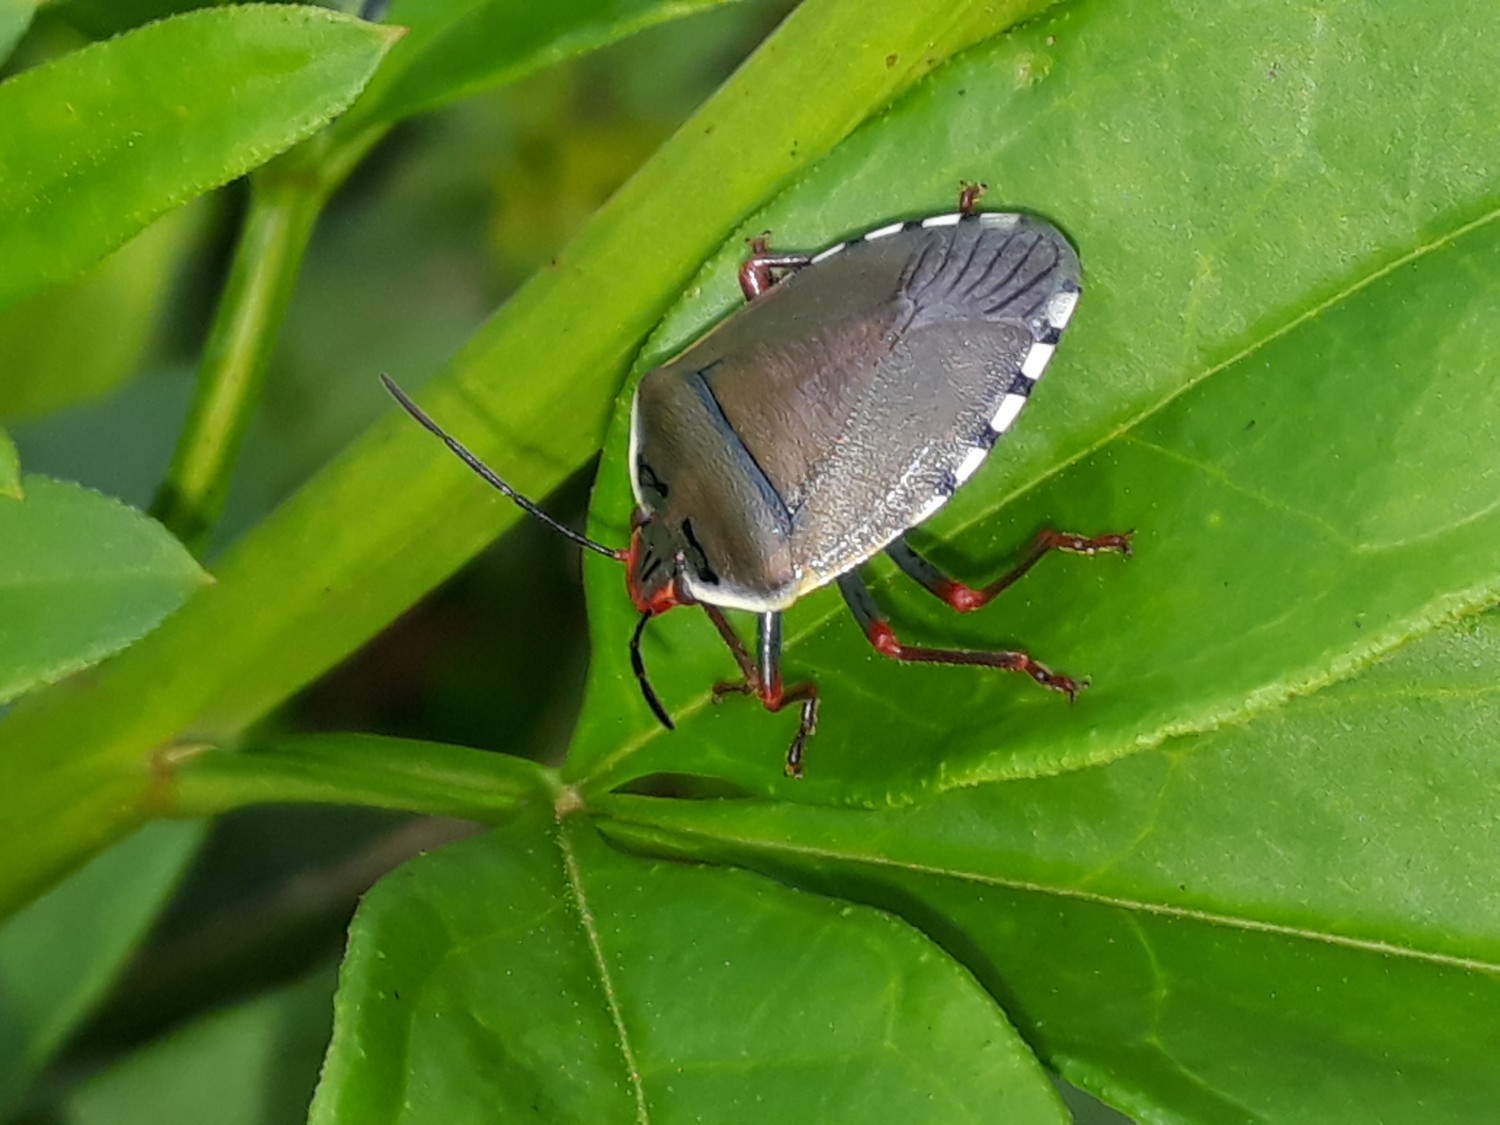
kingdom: Animalia
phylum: Arthropoda
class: Insecta
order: Hemiptera
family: Pentatomidae
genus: Chinavia
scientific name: Chinavia erythrocnemis
